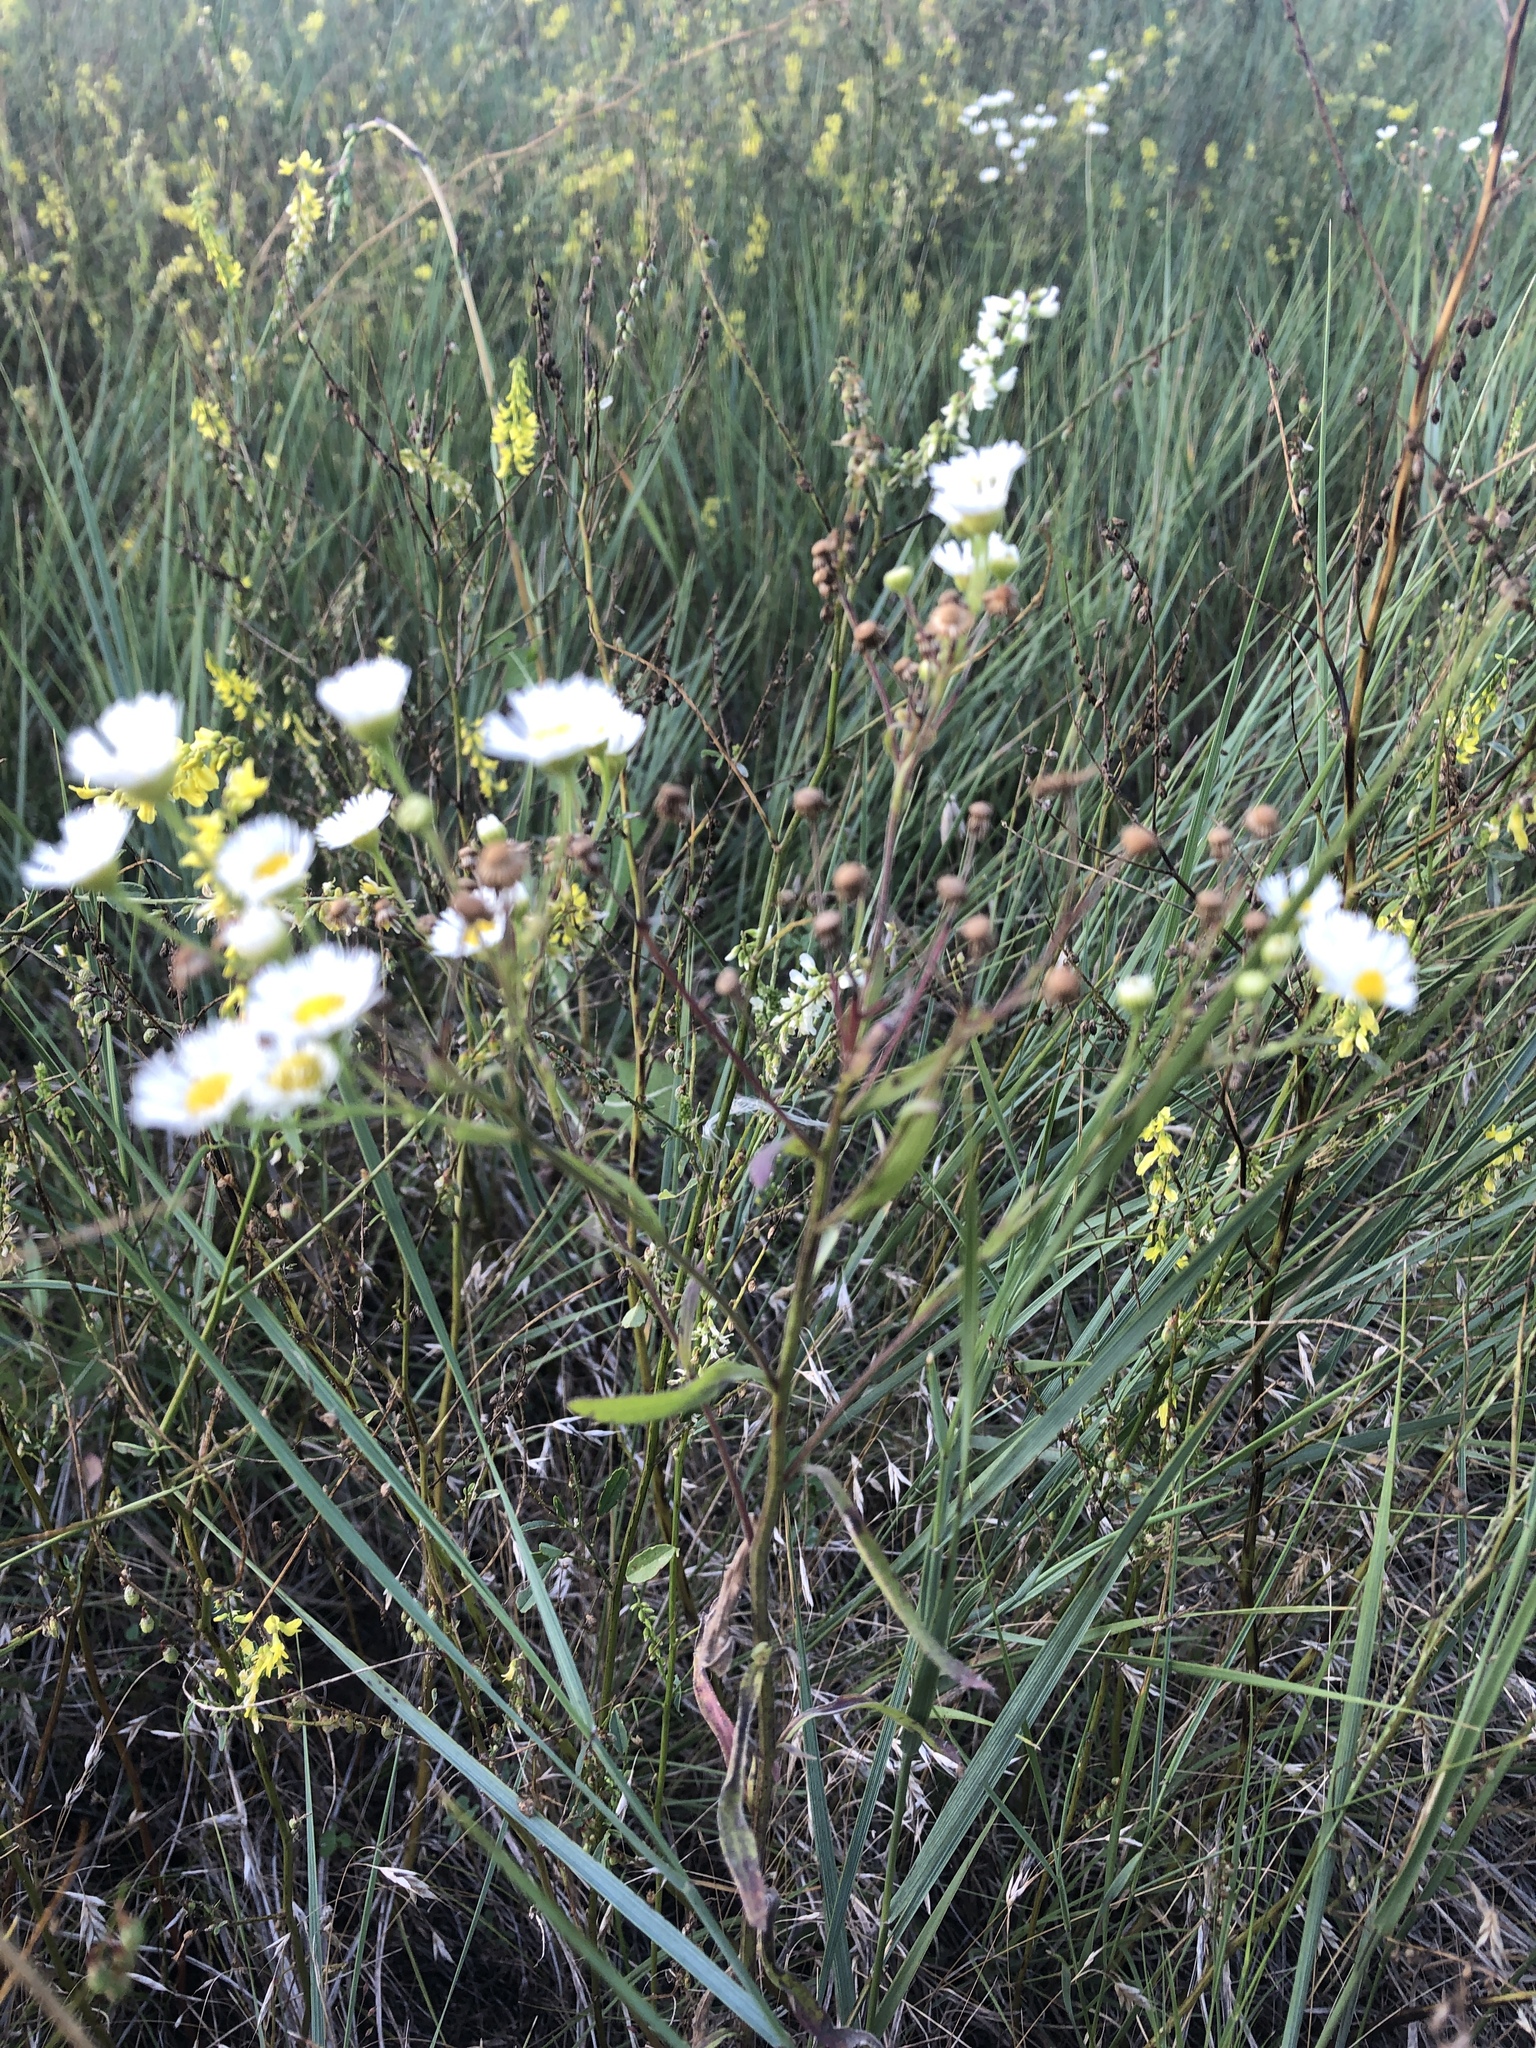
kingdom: Plantae
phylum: Tracheophyta
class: Magnoliopsida
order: Asterales
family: Asteraceae
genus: Erigeron
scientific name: Erigeron strigosus
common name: Common eastern fleabane
